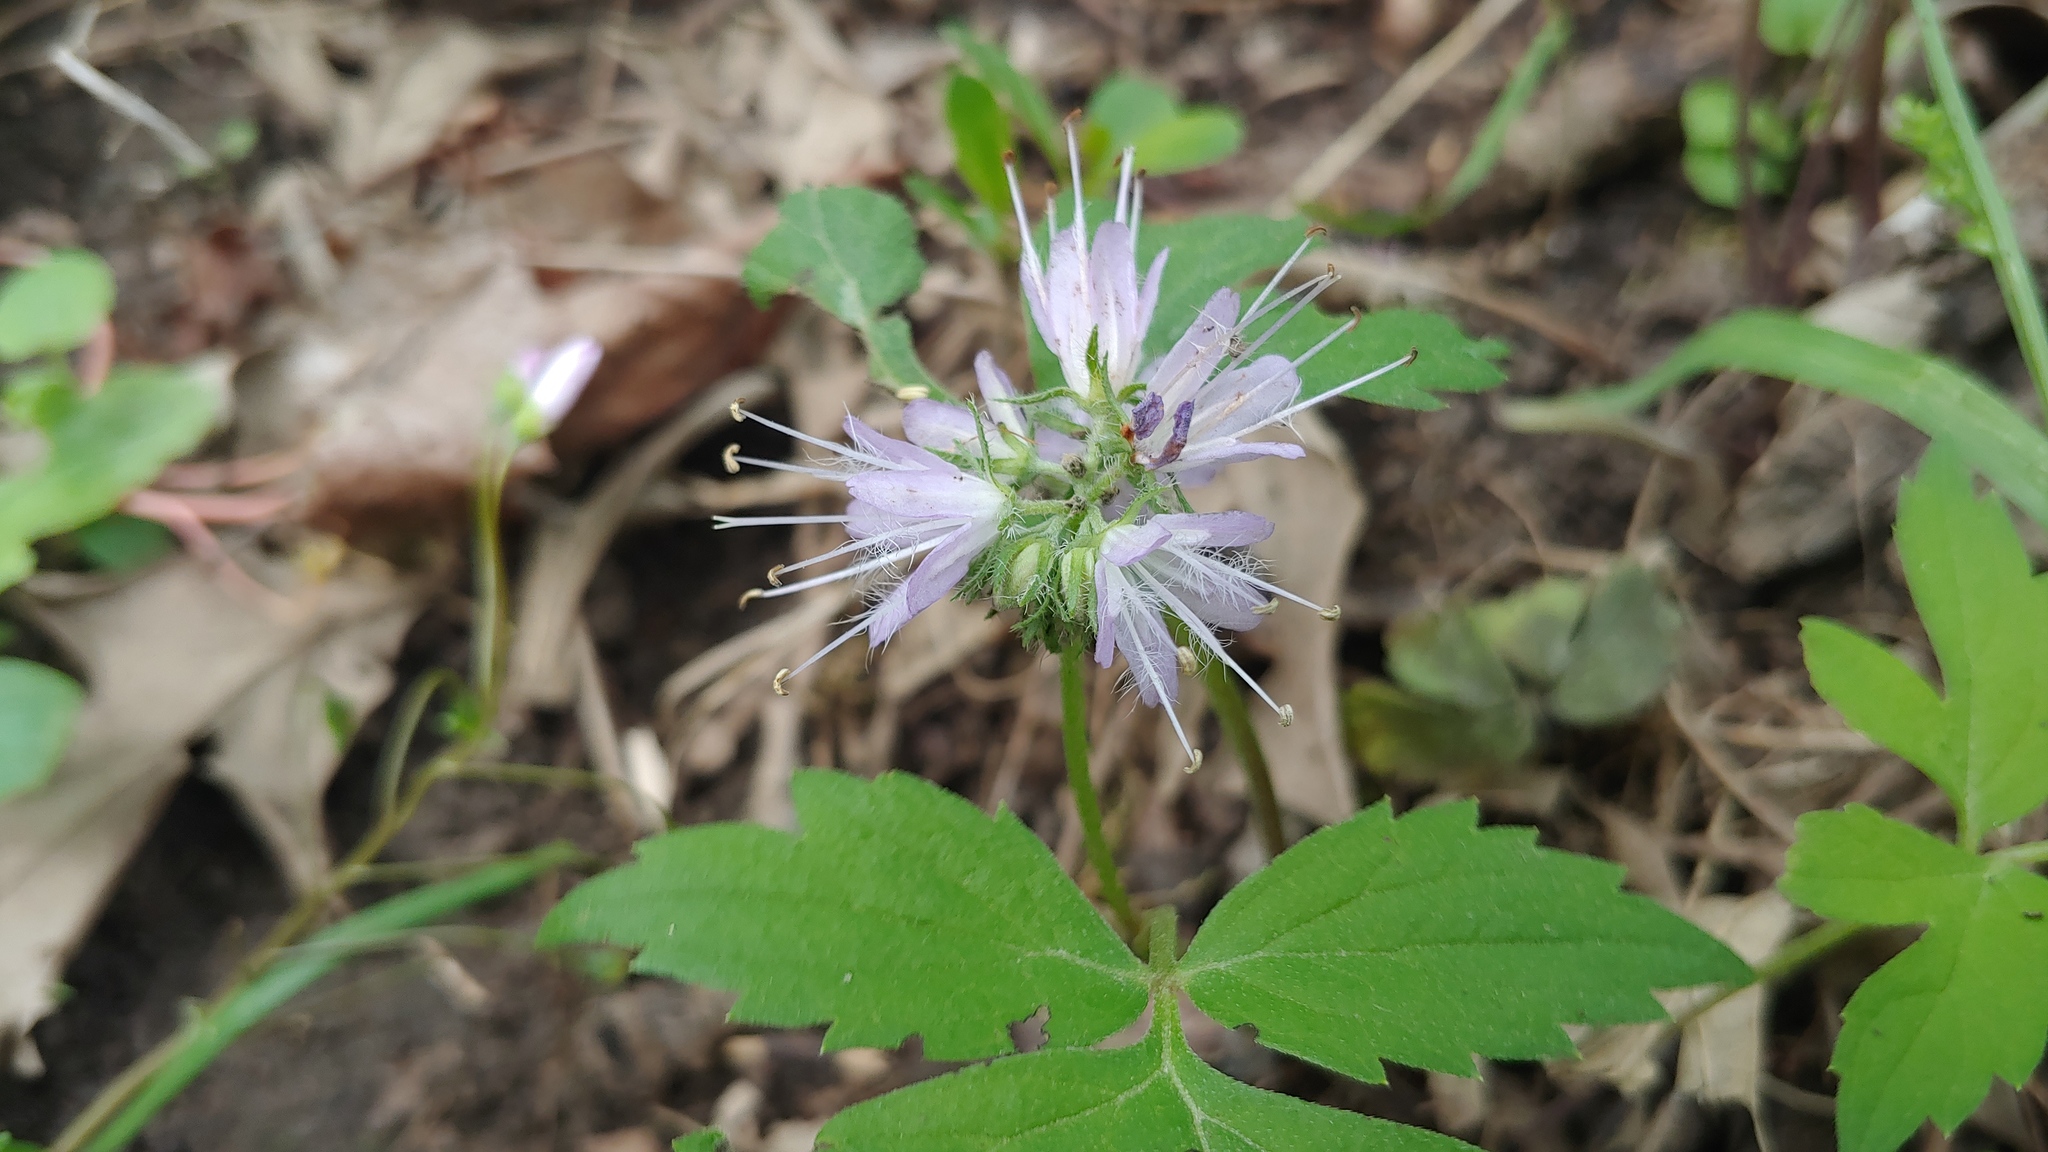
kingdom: Plantae
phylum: Tracheophyta
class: Magnoliopsida
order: Boraginales
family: Hydrophyllaceae
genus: Hydrophyllum
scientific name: Hydrophyllum virginianum
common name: Virginia waterleaf
